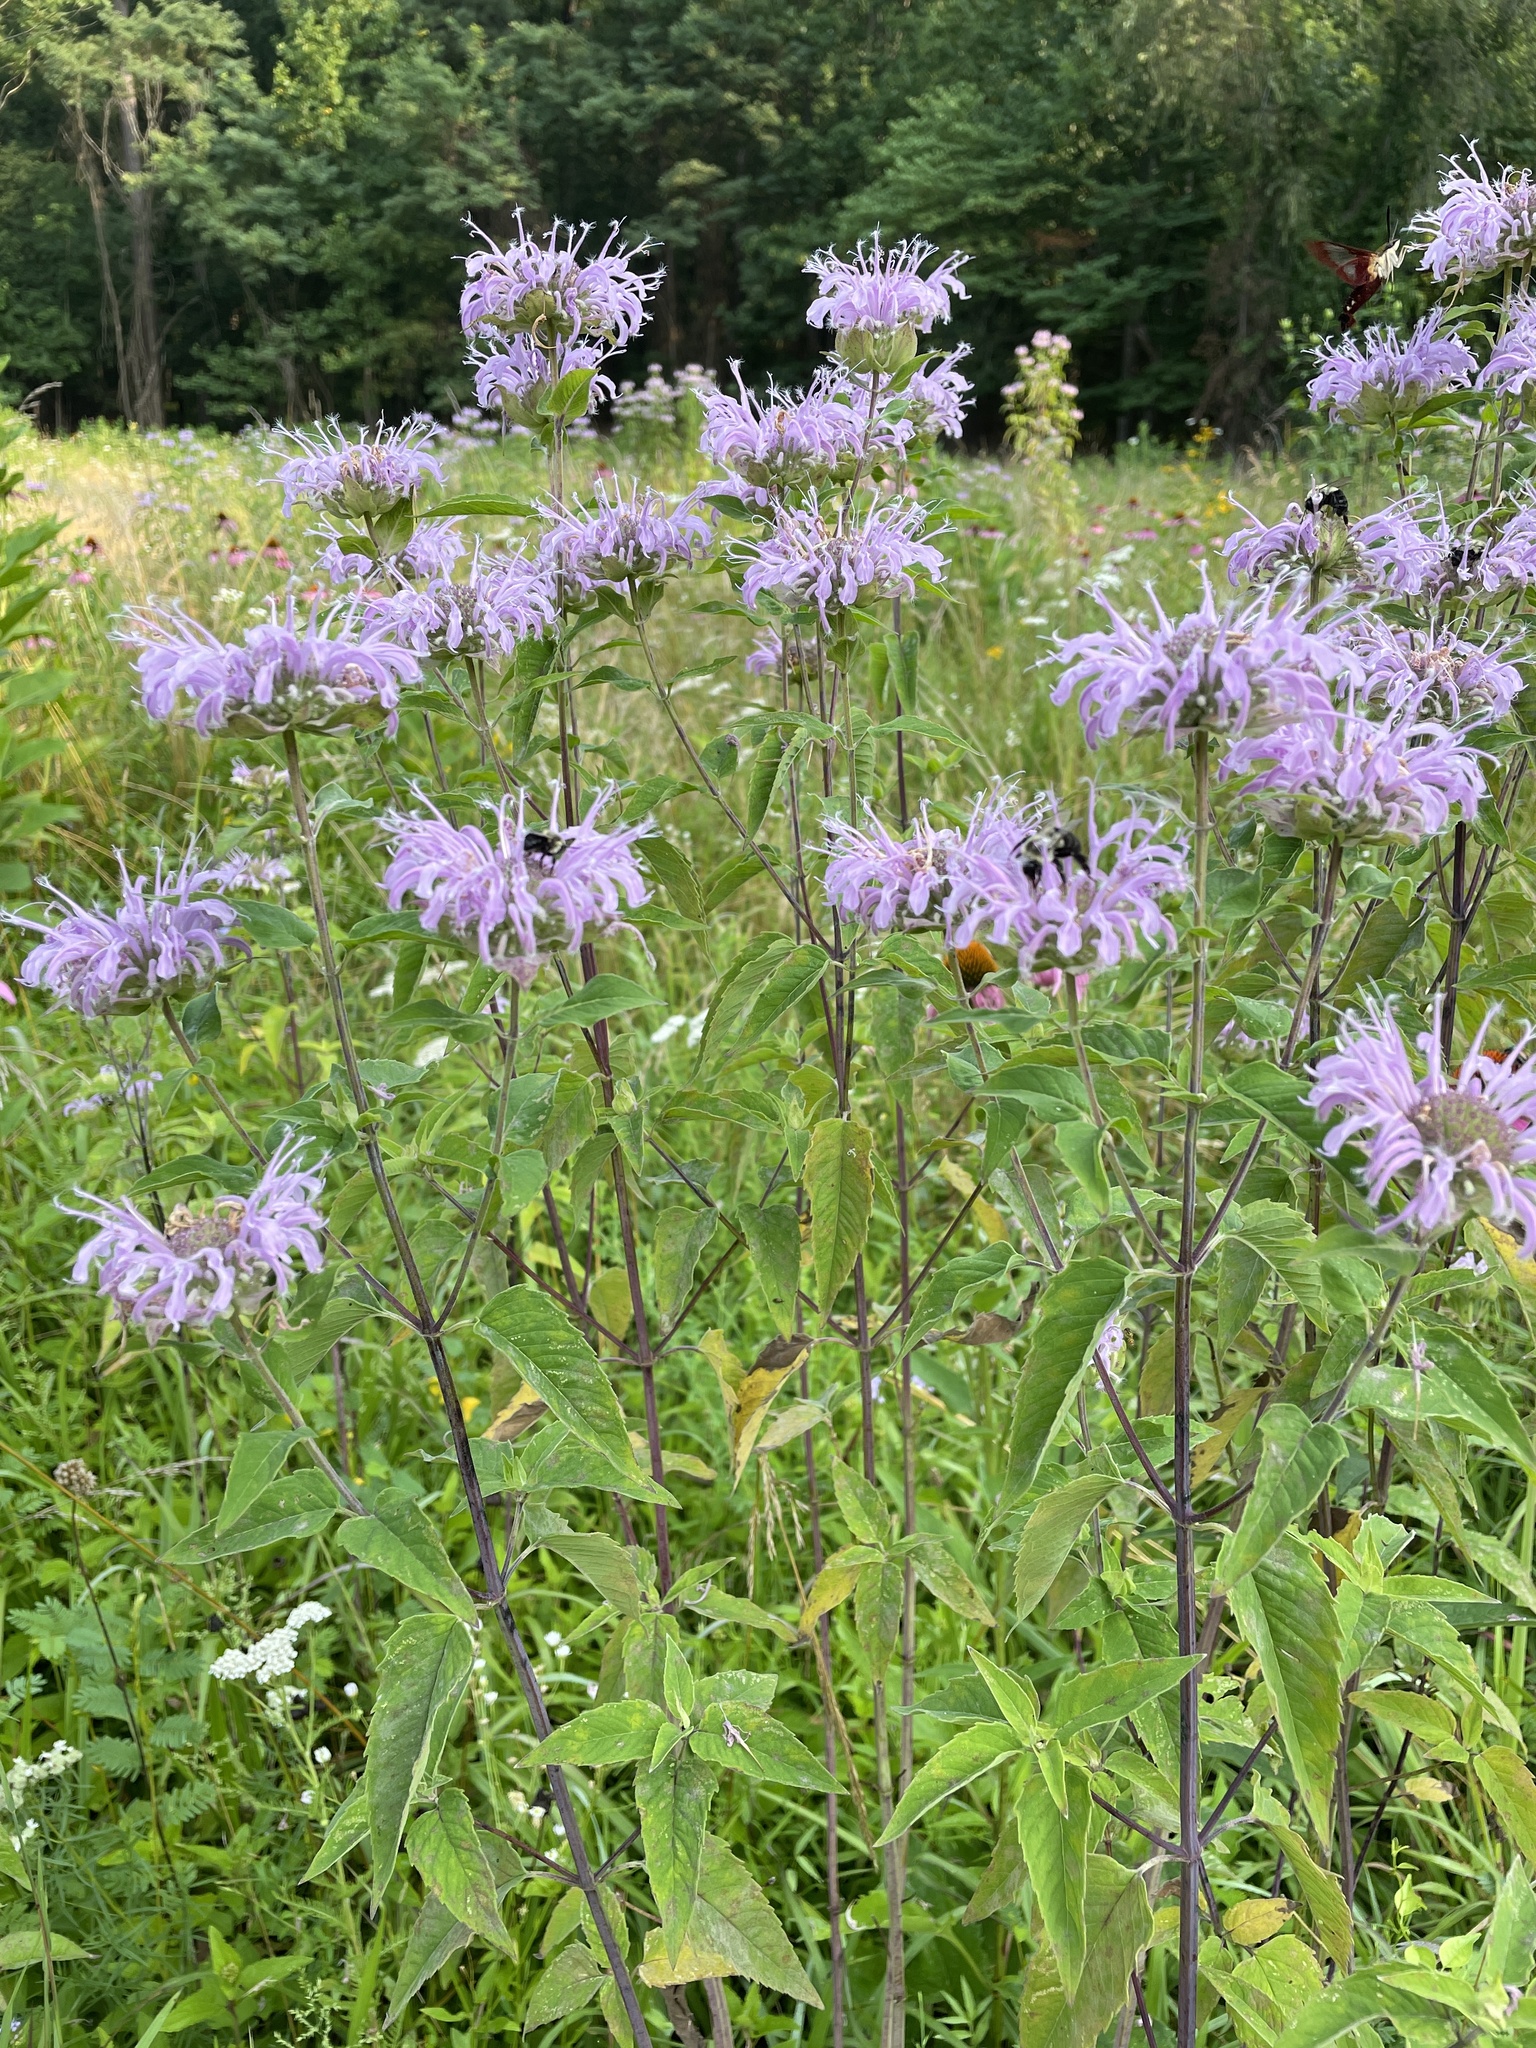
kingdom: Plantae
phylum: Tracheophyta
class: Magnoliopsida
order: Lamiales
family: Lamiaceae
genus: Monarda
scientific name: Monarda fistulosa
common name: Purple beebalm
